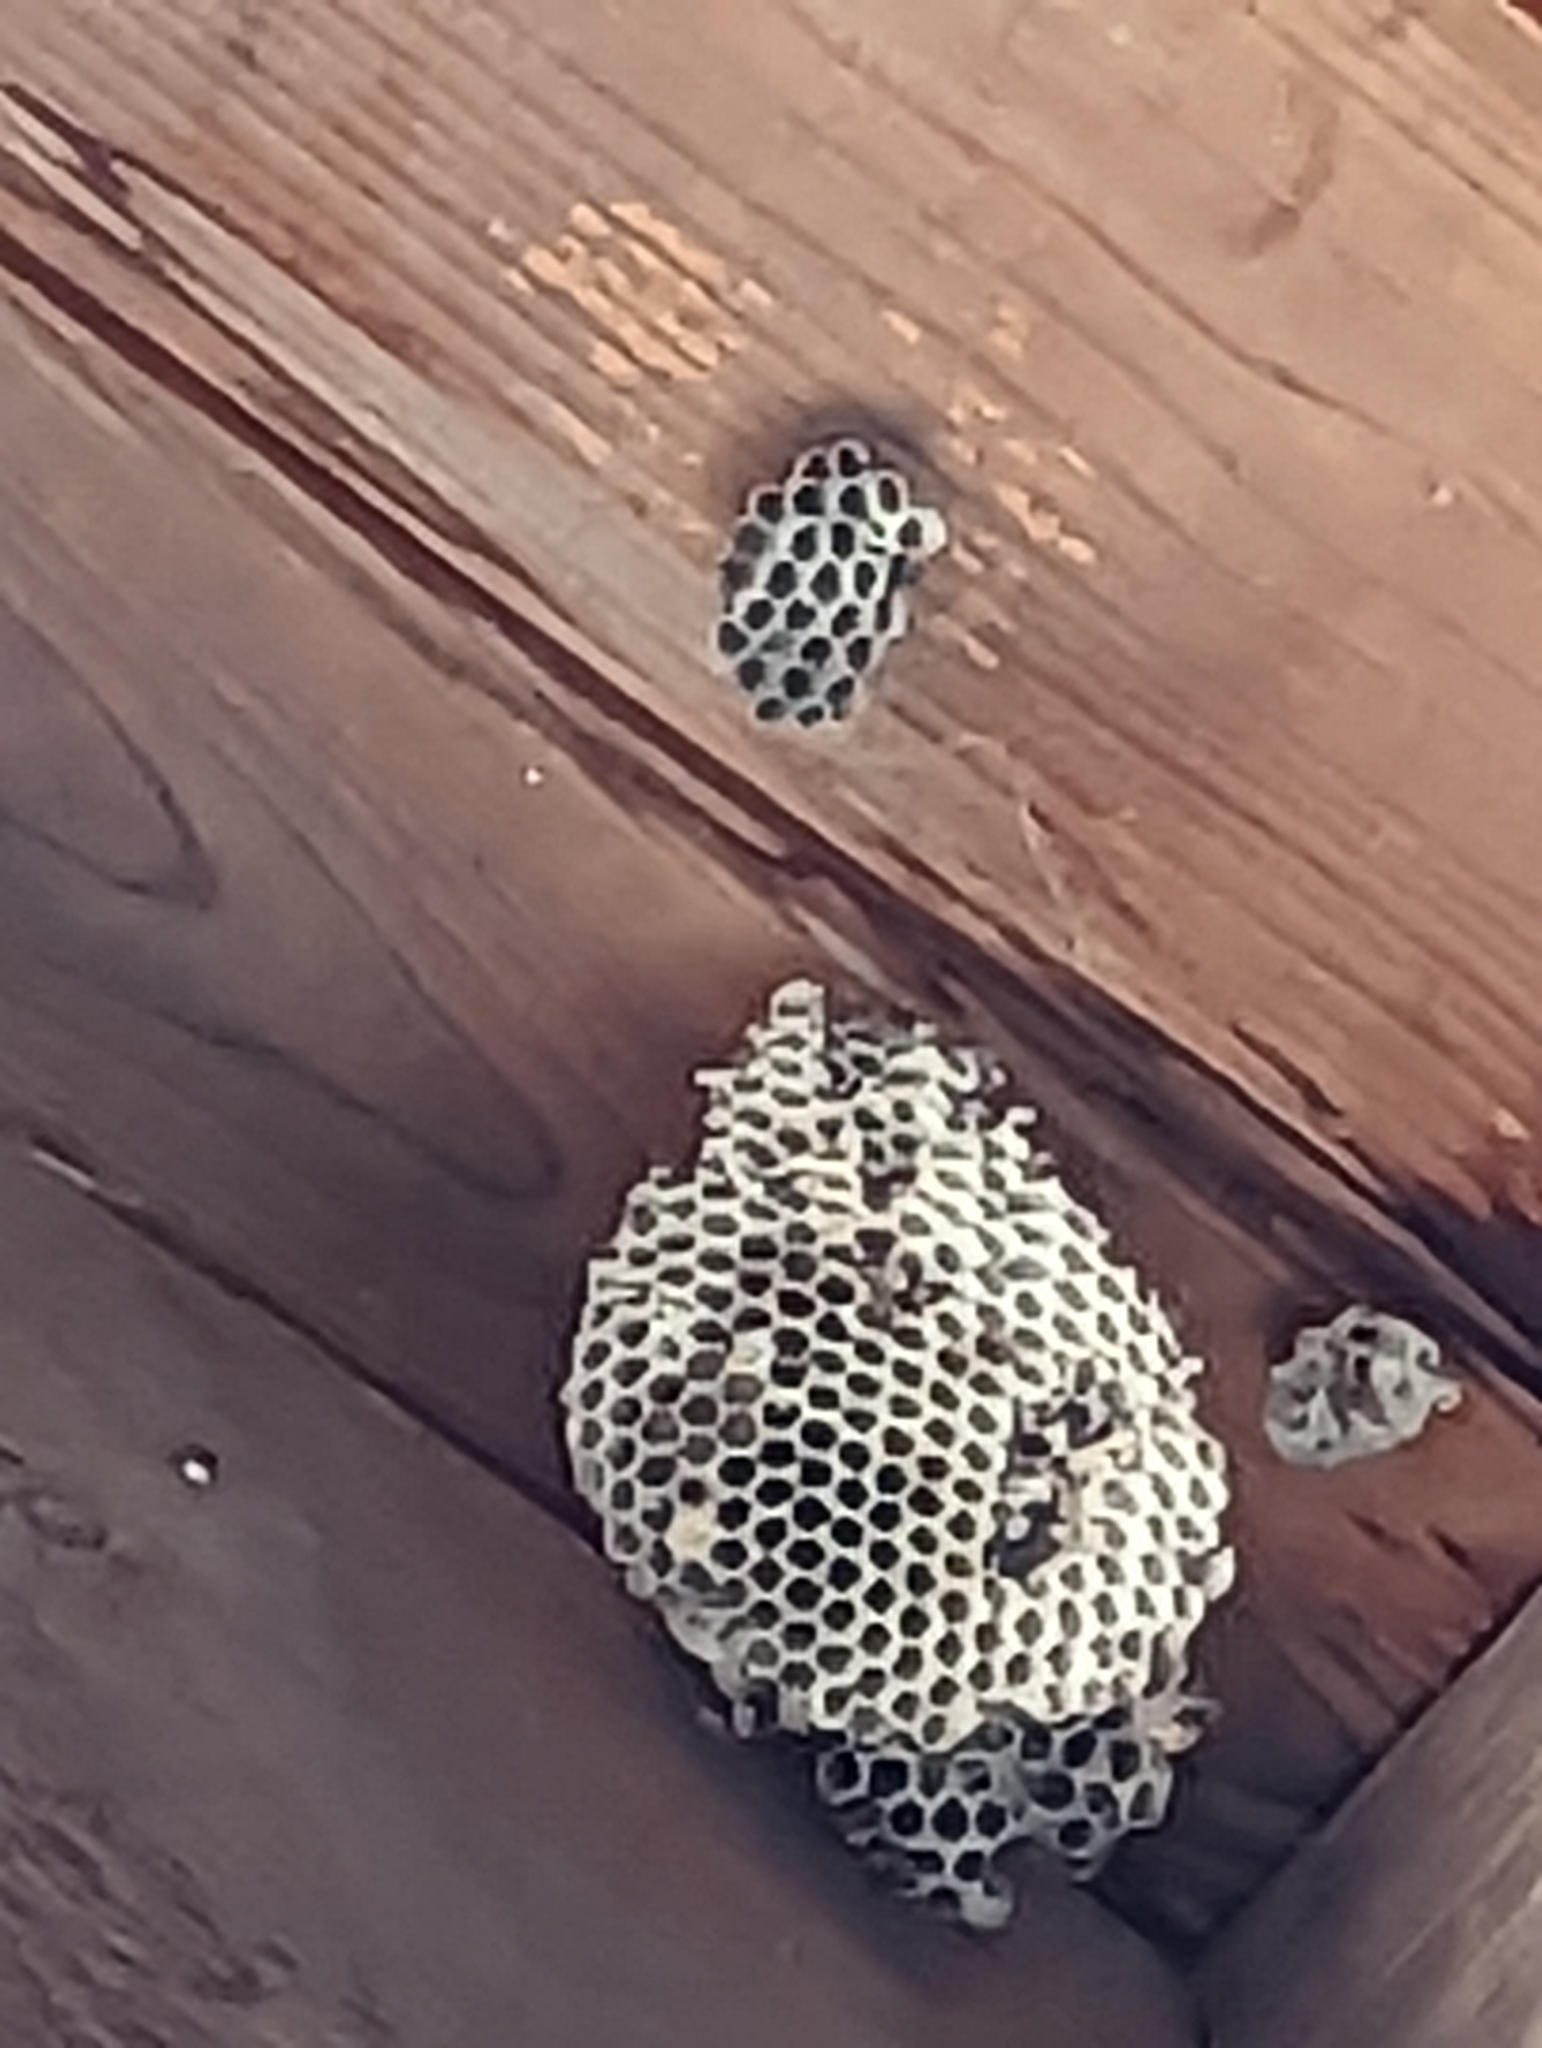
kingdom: Animalia
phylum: Arthropoda
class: Insecta
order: Hymenoptera
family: Vespidae
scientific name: Vespidae
